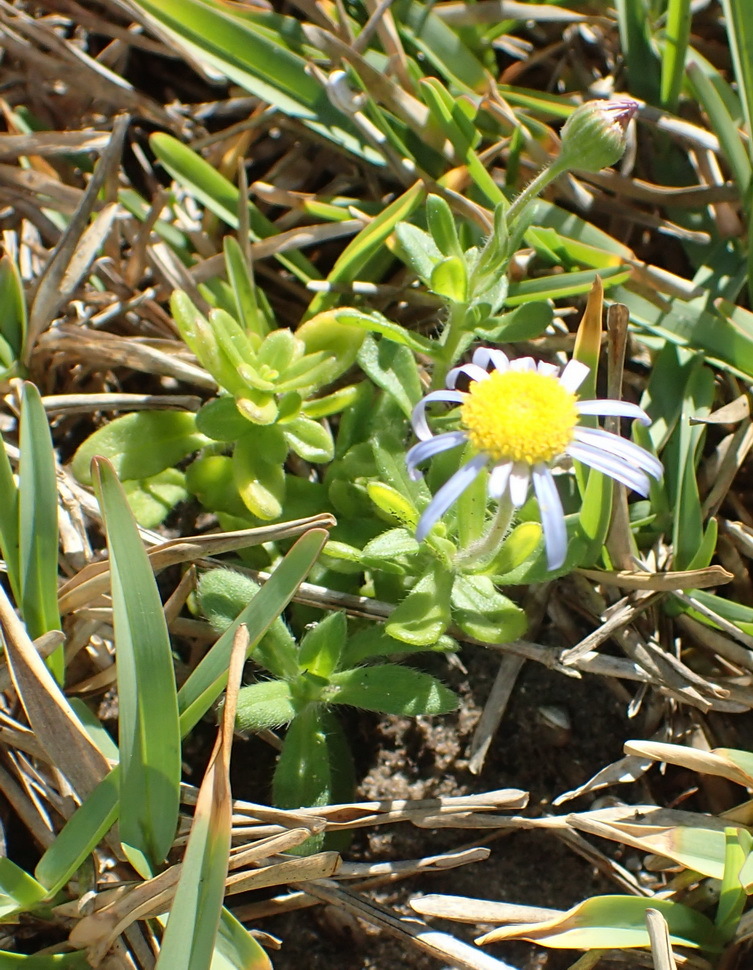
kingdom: Plantae
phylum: Tracheophyta
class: Magnoliopsida
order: Asterales
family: Asteraceae
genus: Felicia
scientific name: Felicia amoena
